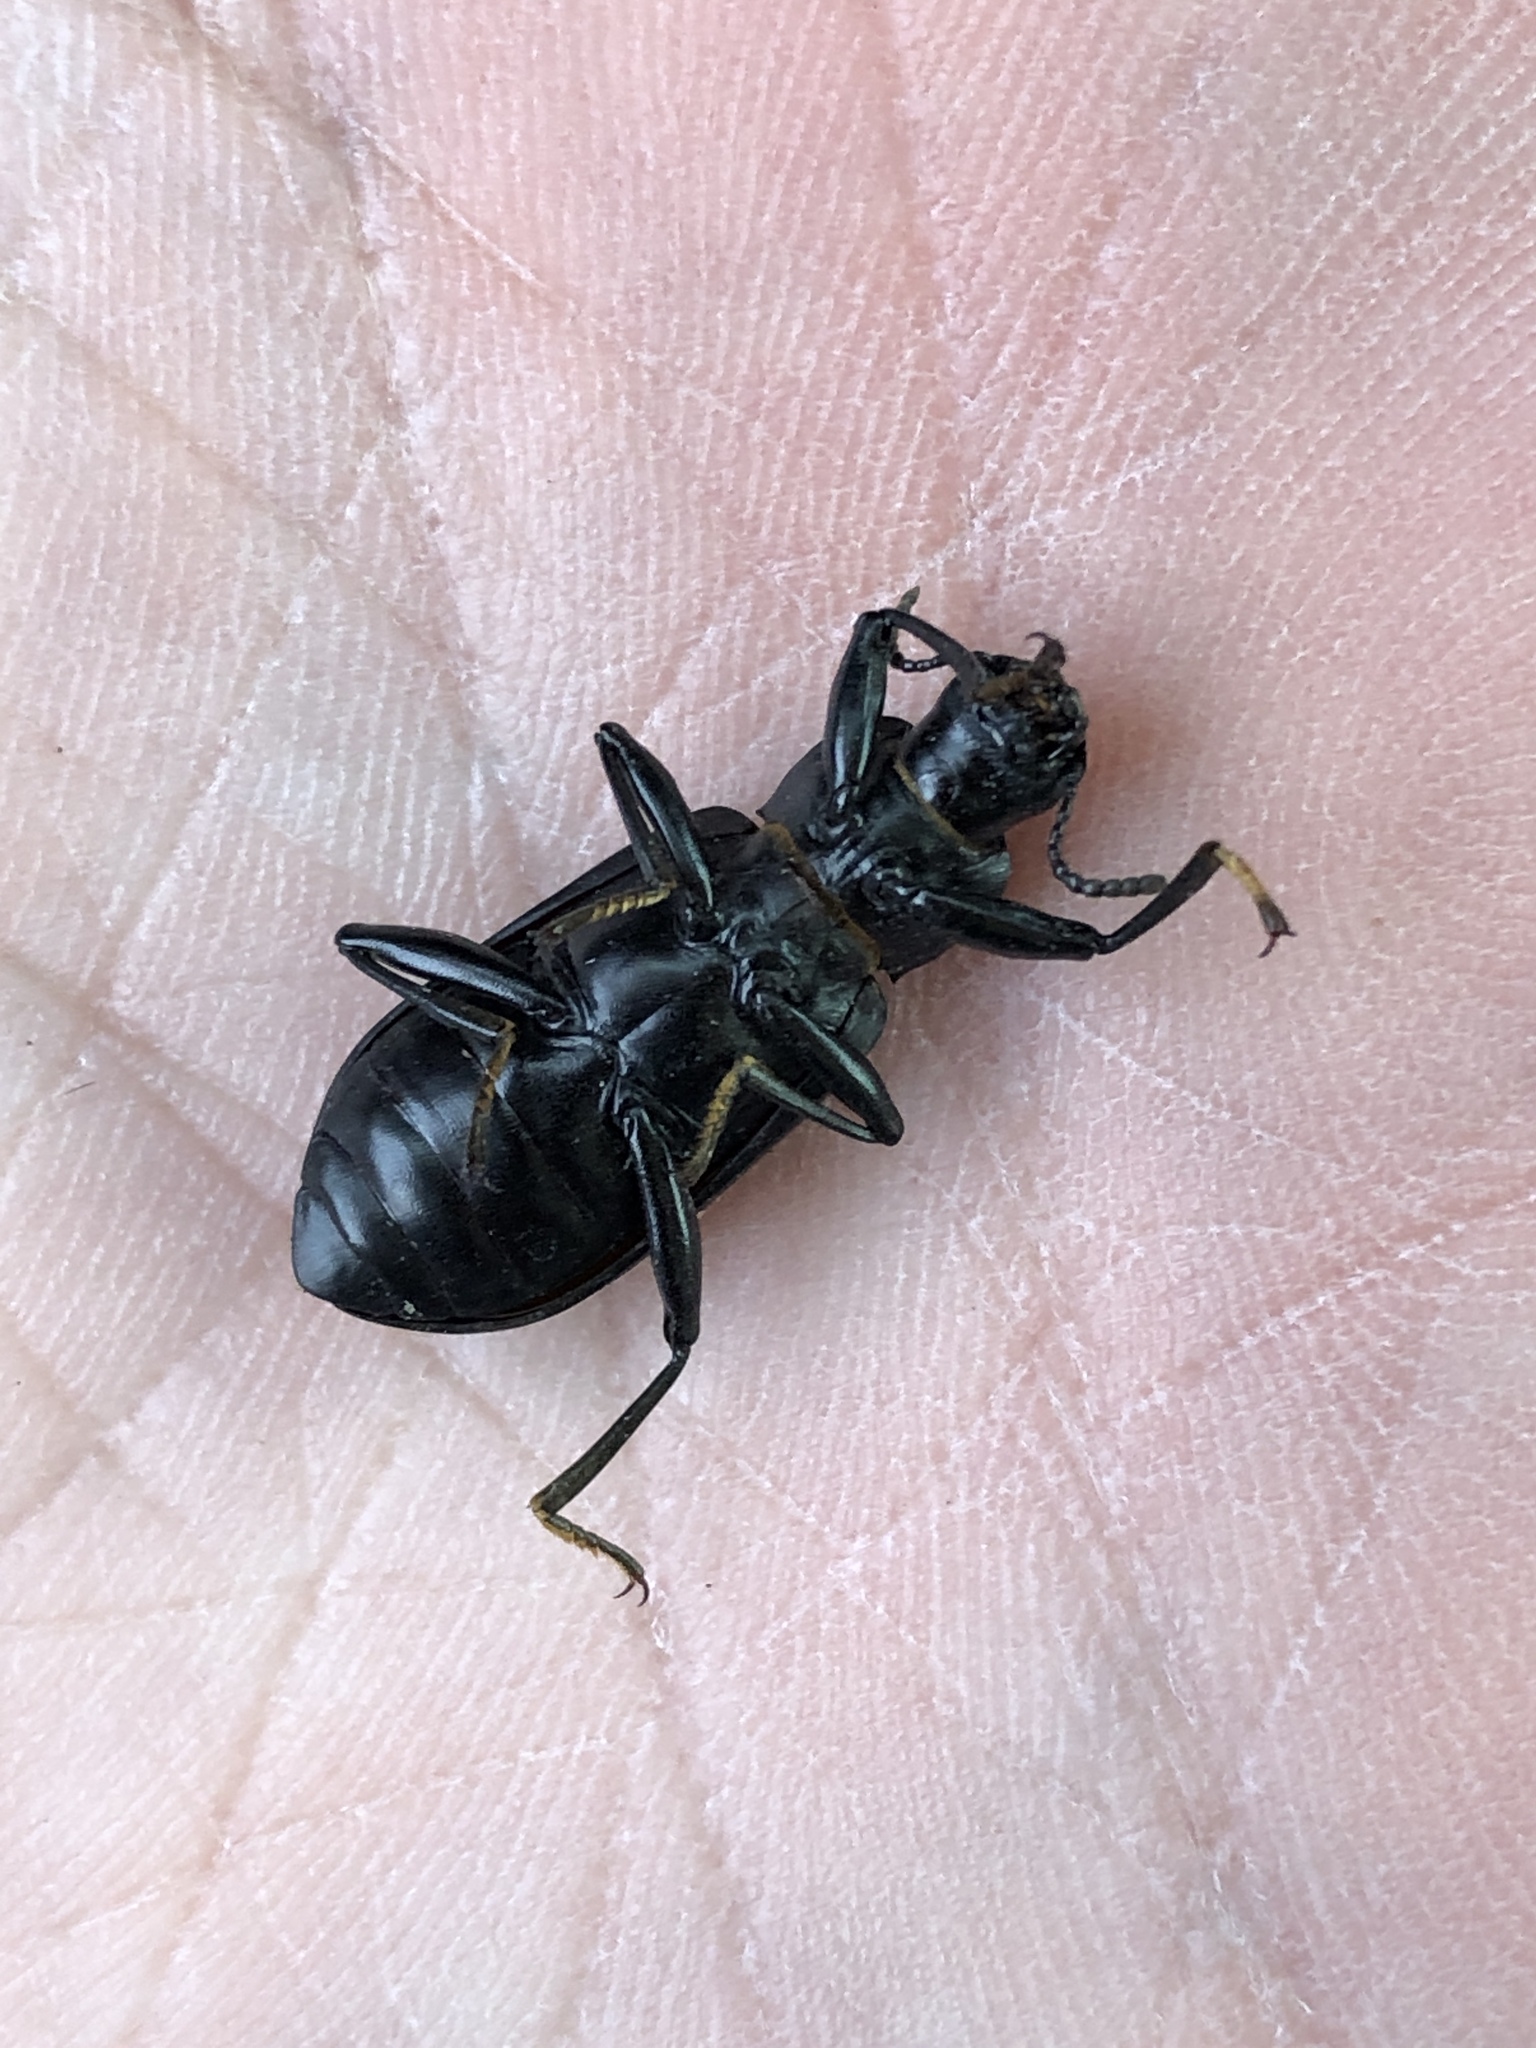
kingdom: Animalia
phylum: Arthropoda
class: Insecta
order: Coleoptera
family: Tenebrionidae
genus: Alobates
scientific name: Alobates pensylvanicus
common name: False mealworm beetle
